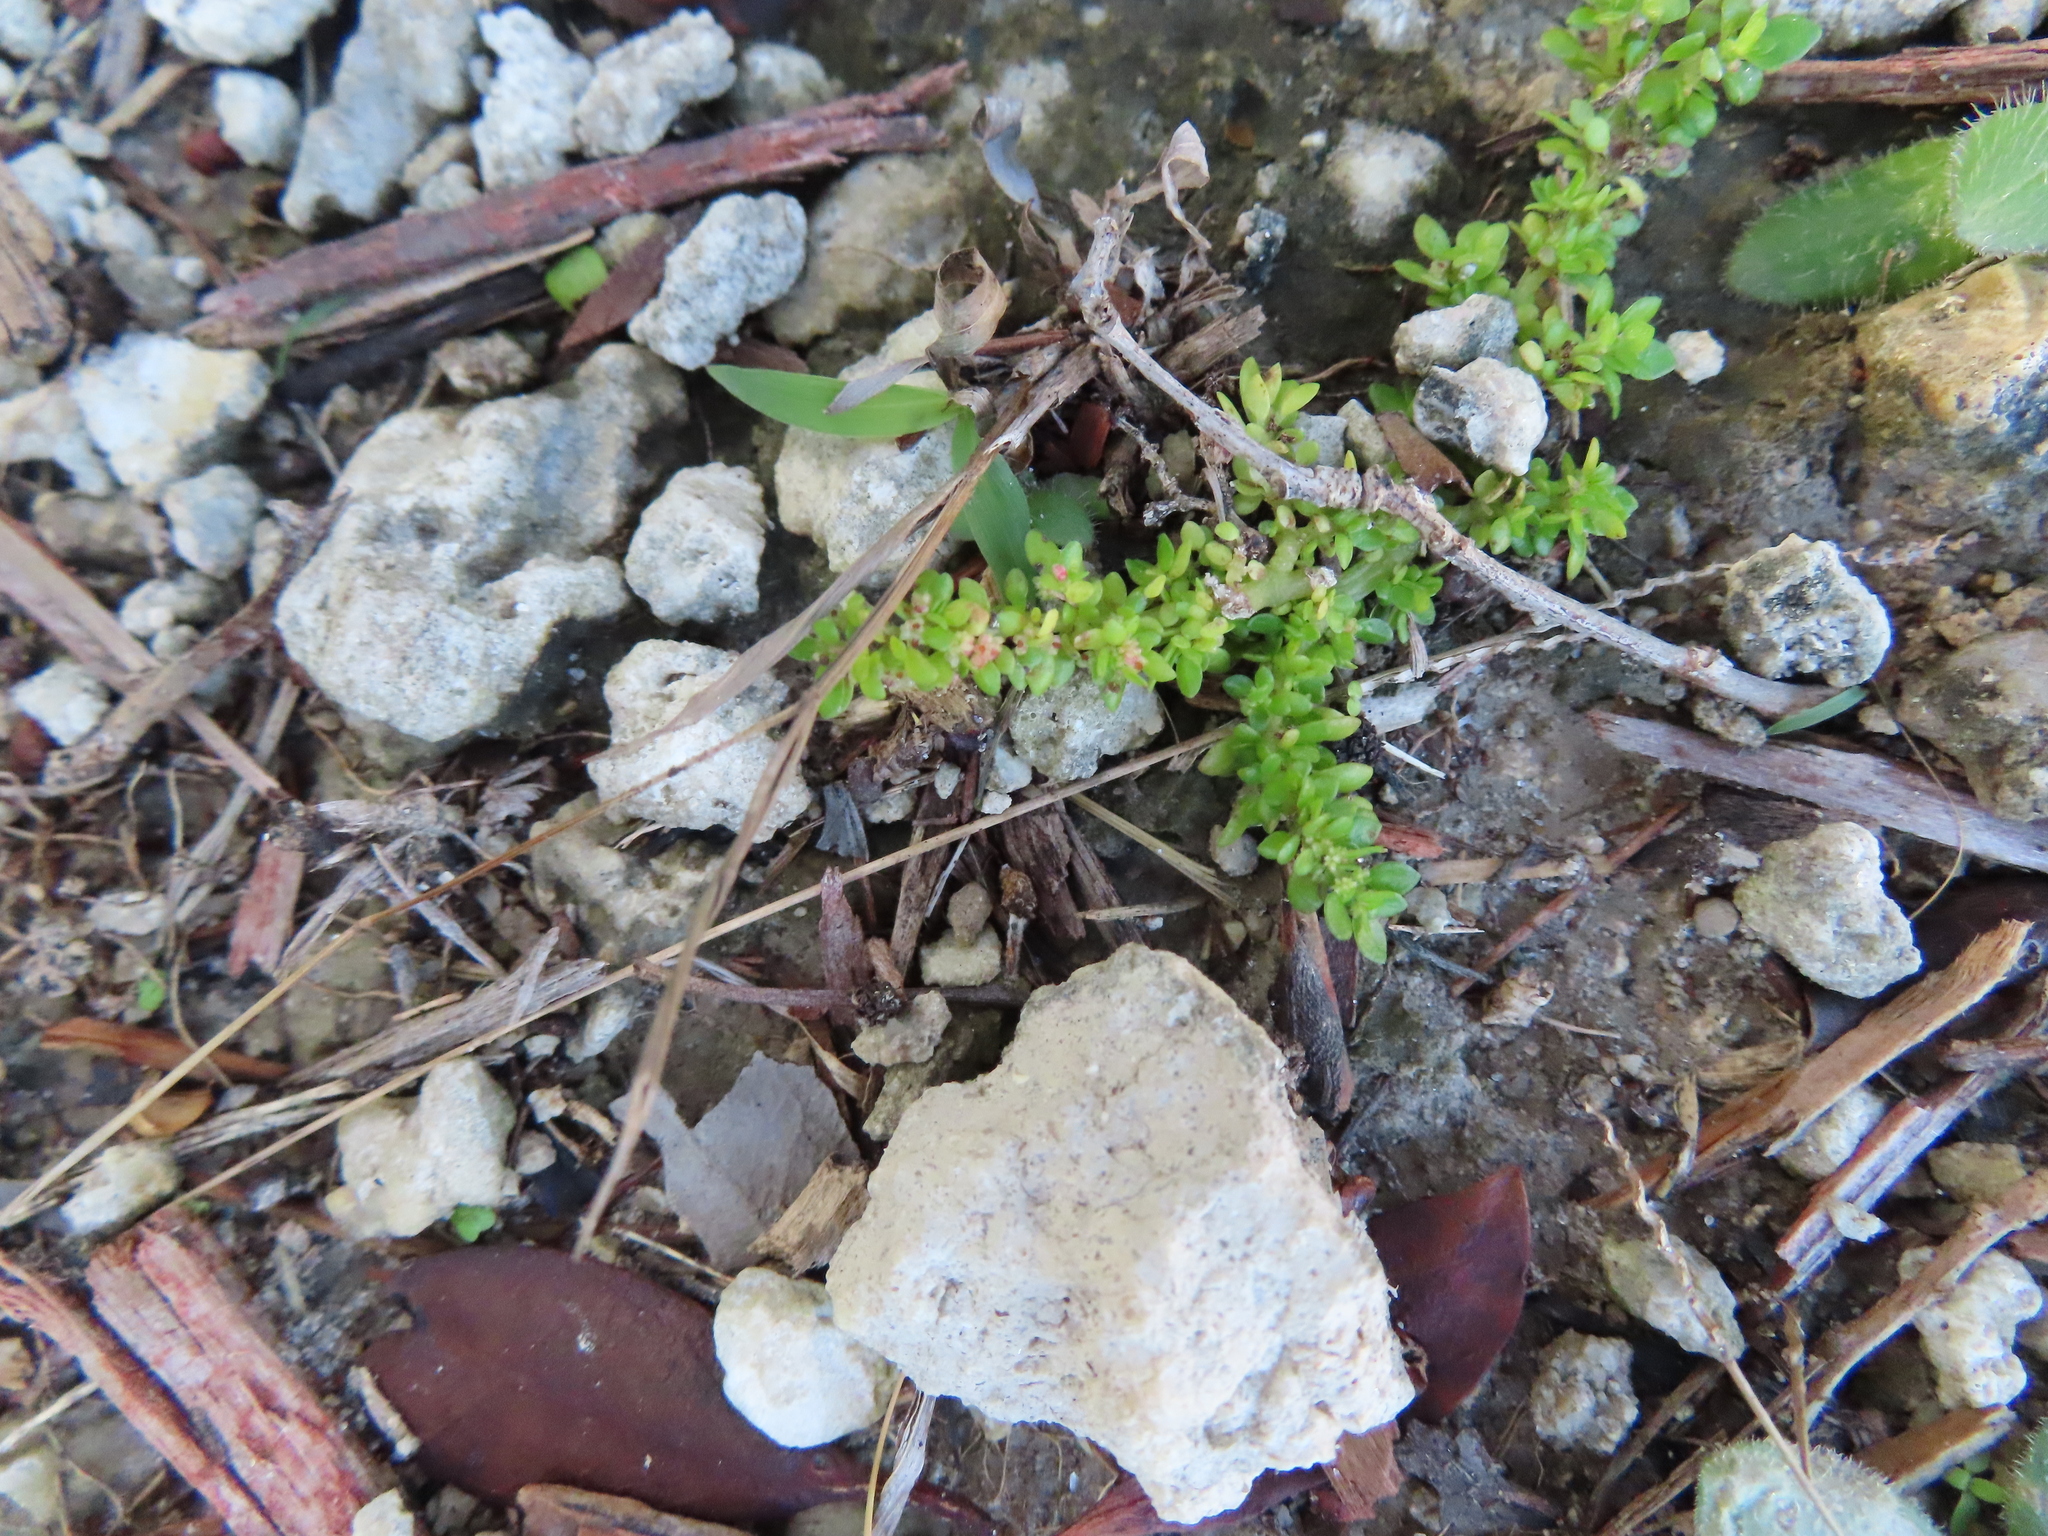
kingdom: Plantae
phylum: Tracheophyta
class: Magnoliopsida
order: Rosales
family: Urticaceae
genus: Pilea
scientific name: Pilea microphylla
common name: Artillery-plant
